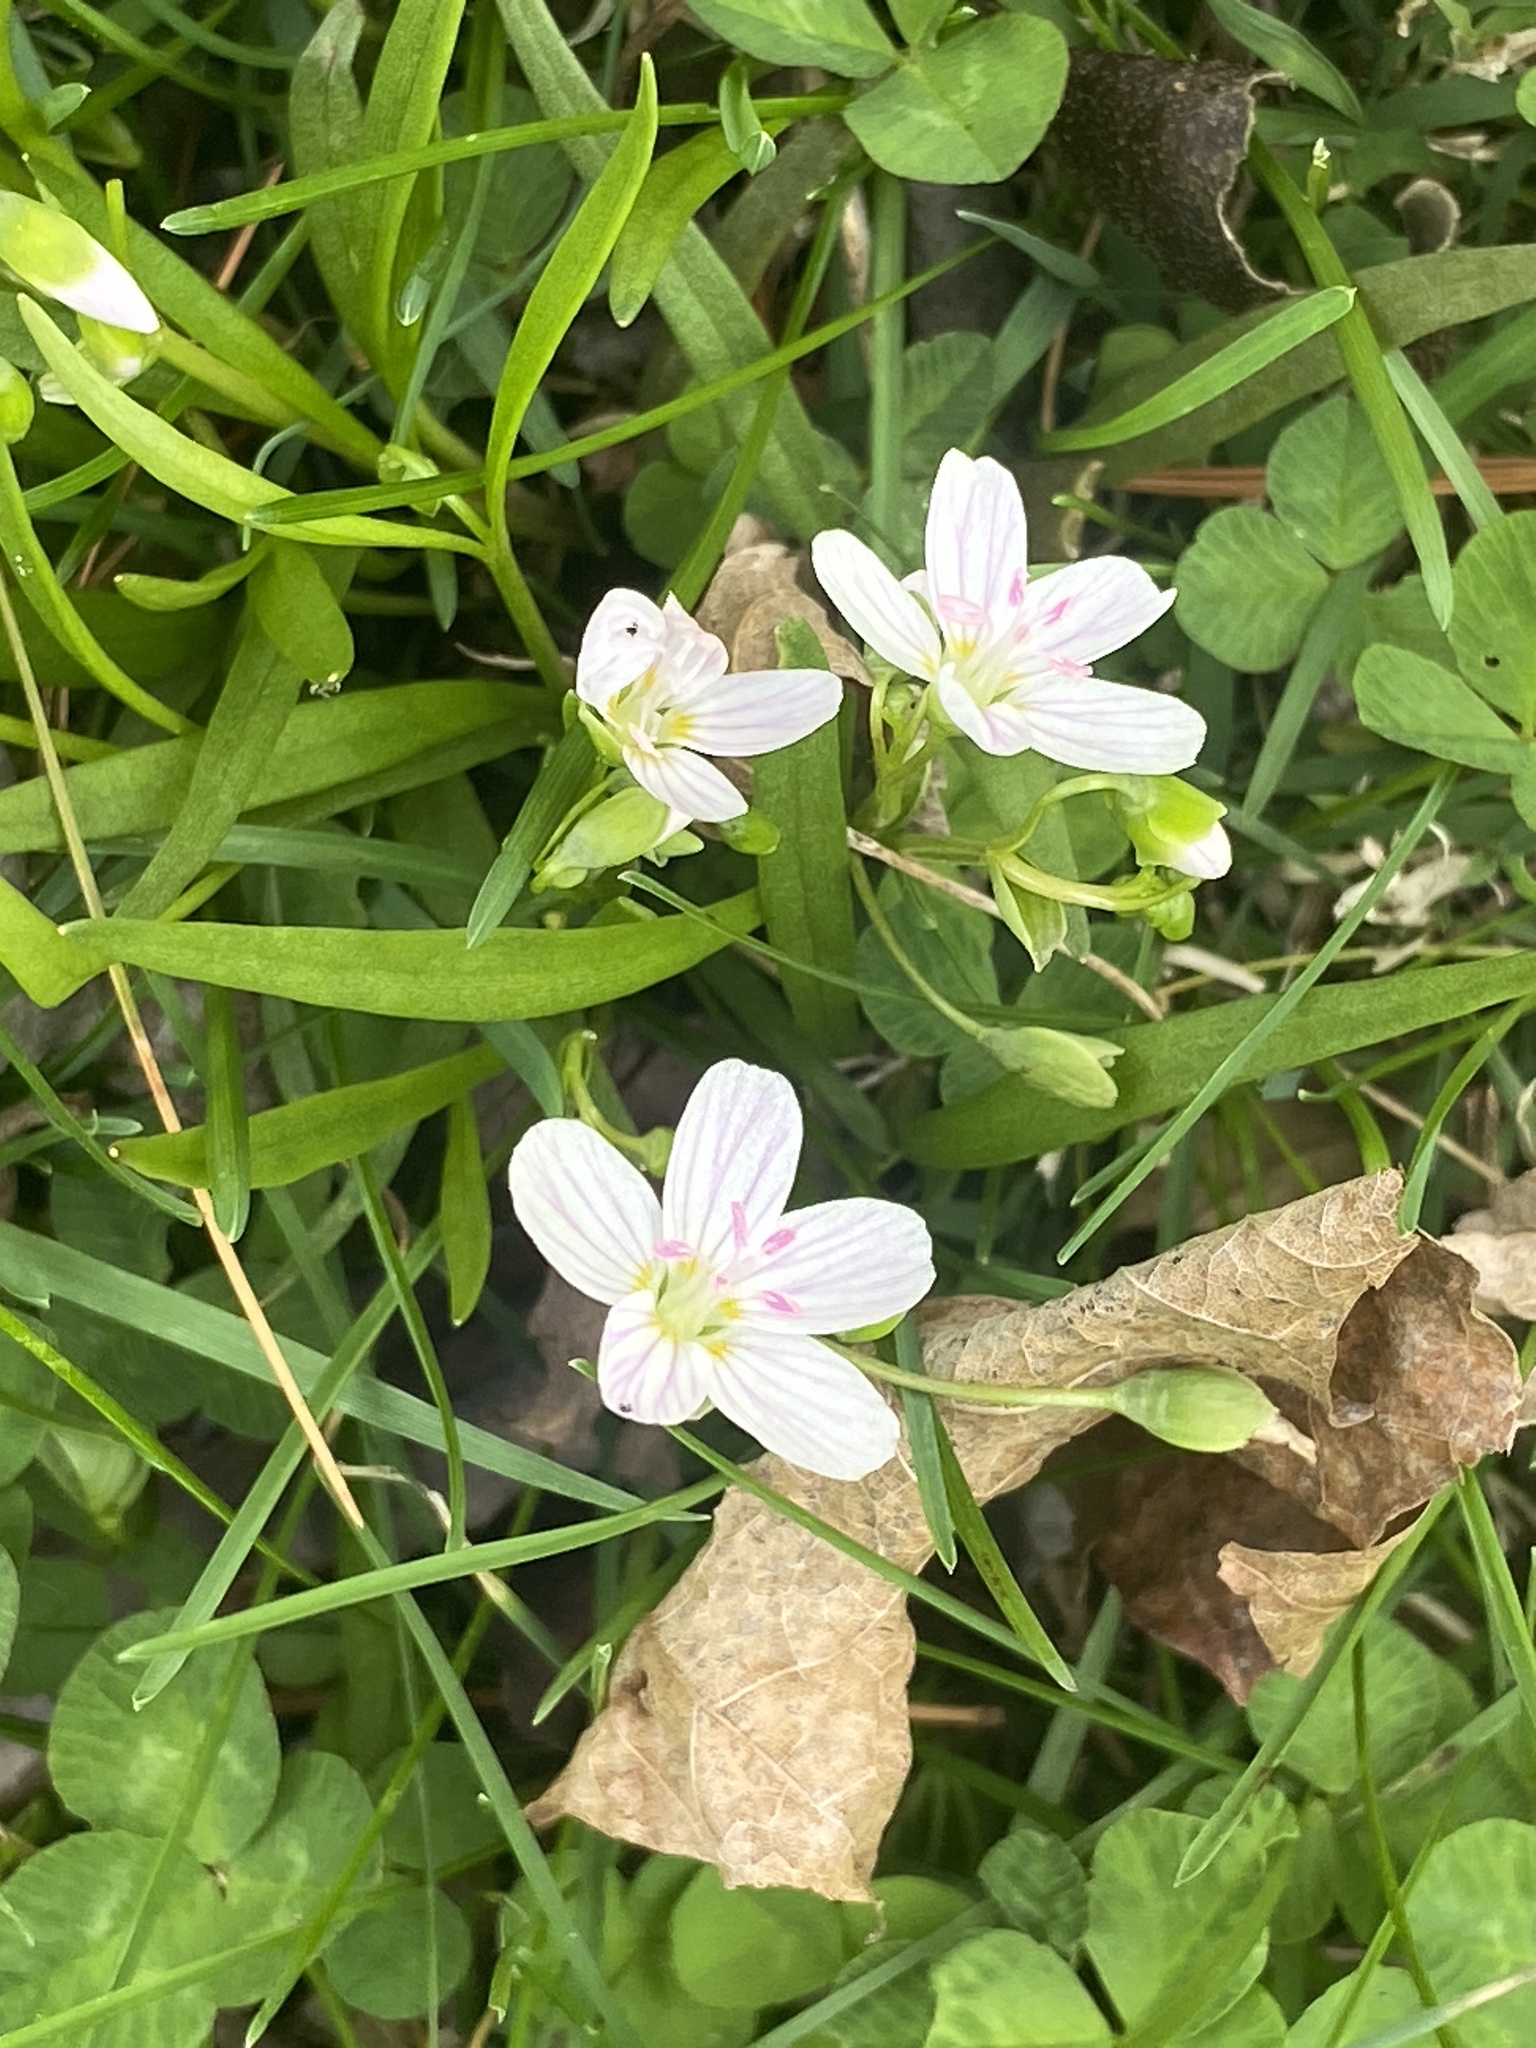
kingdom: Plantae
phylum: Tracheophyta
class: Magnoliopsida
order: Caryophyllales
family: Montiaceae
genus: Claytonia
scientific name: Claytonia virginica
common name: Virginia springbeauty
